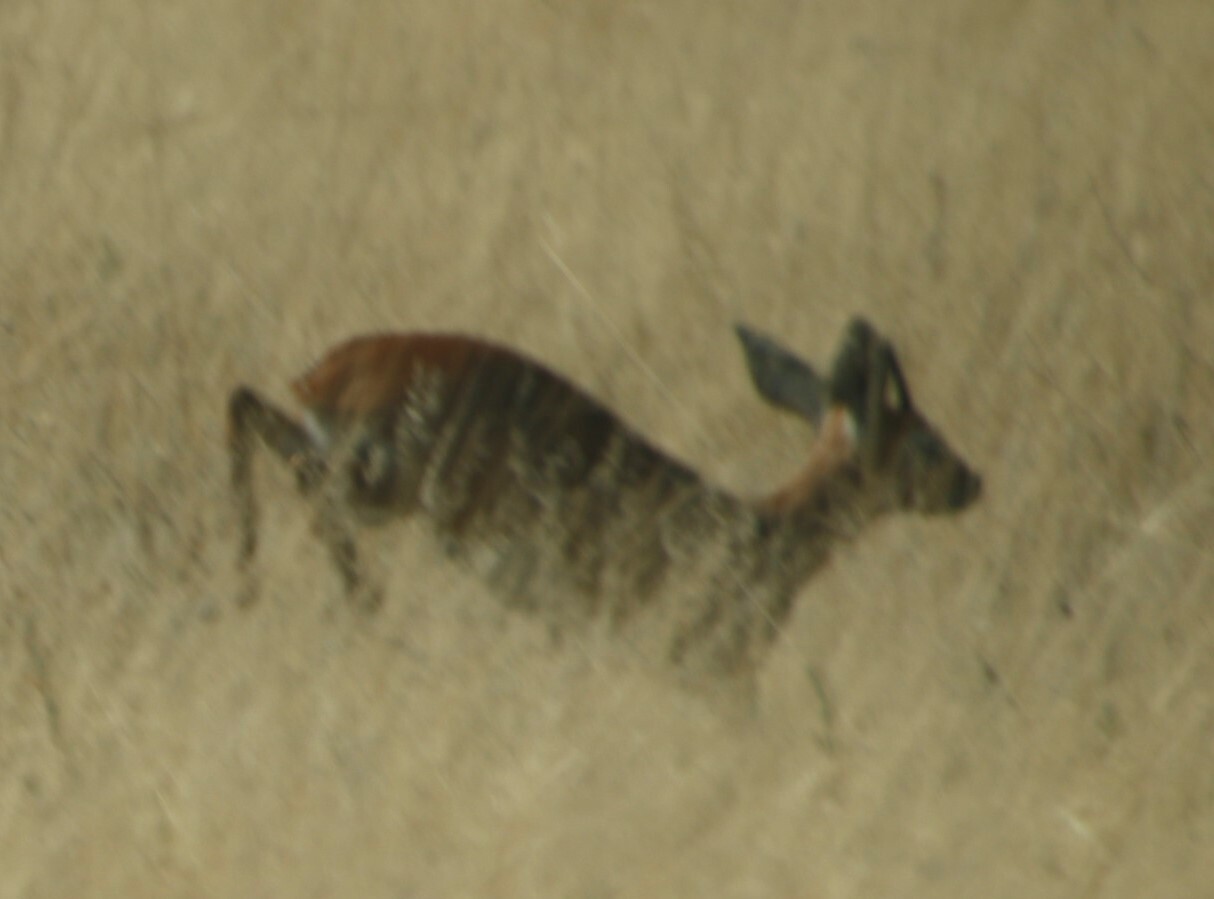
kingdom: Animalia
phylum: Chordata
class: Mammalia
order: Artiodactyla
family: Bovidae
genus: Raphicerus
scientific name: Raphicerus campestris
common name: Steenbok
